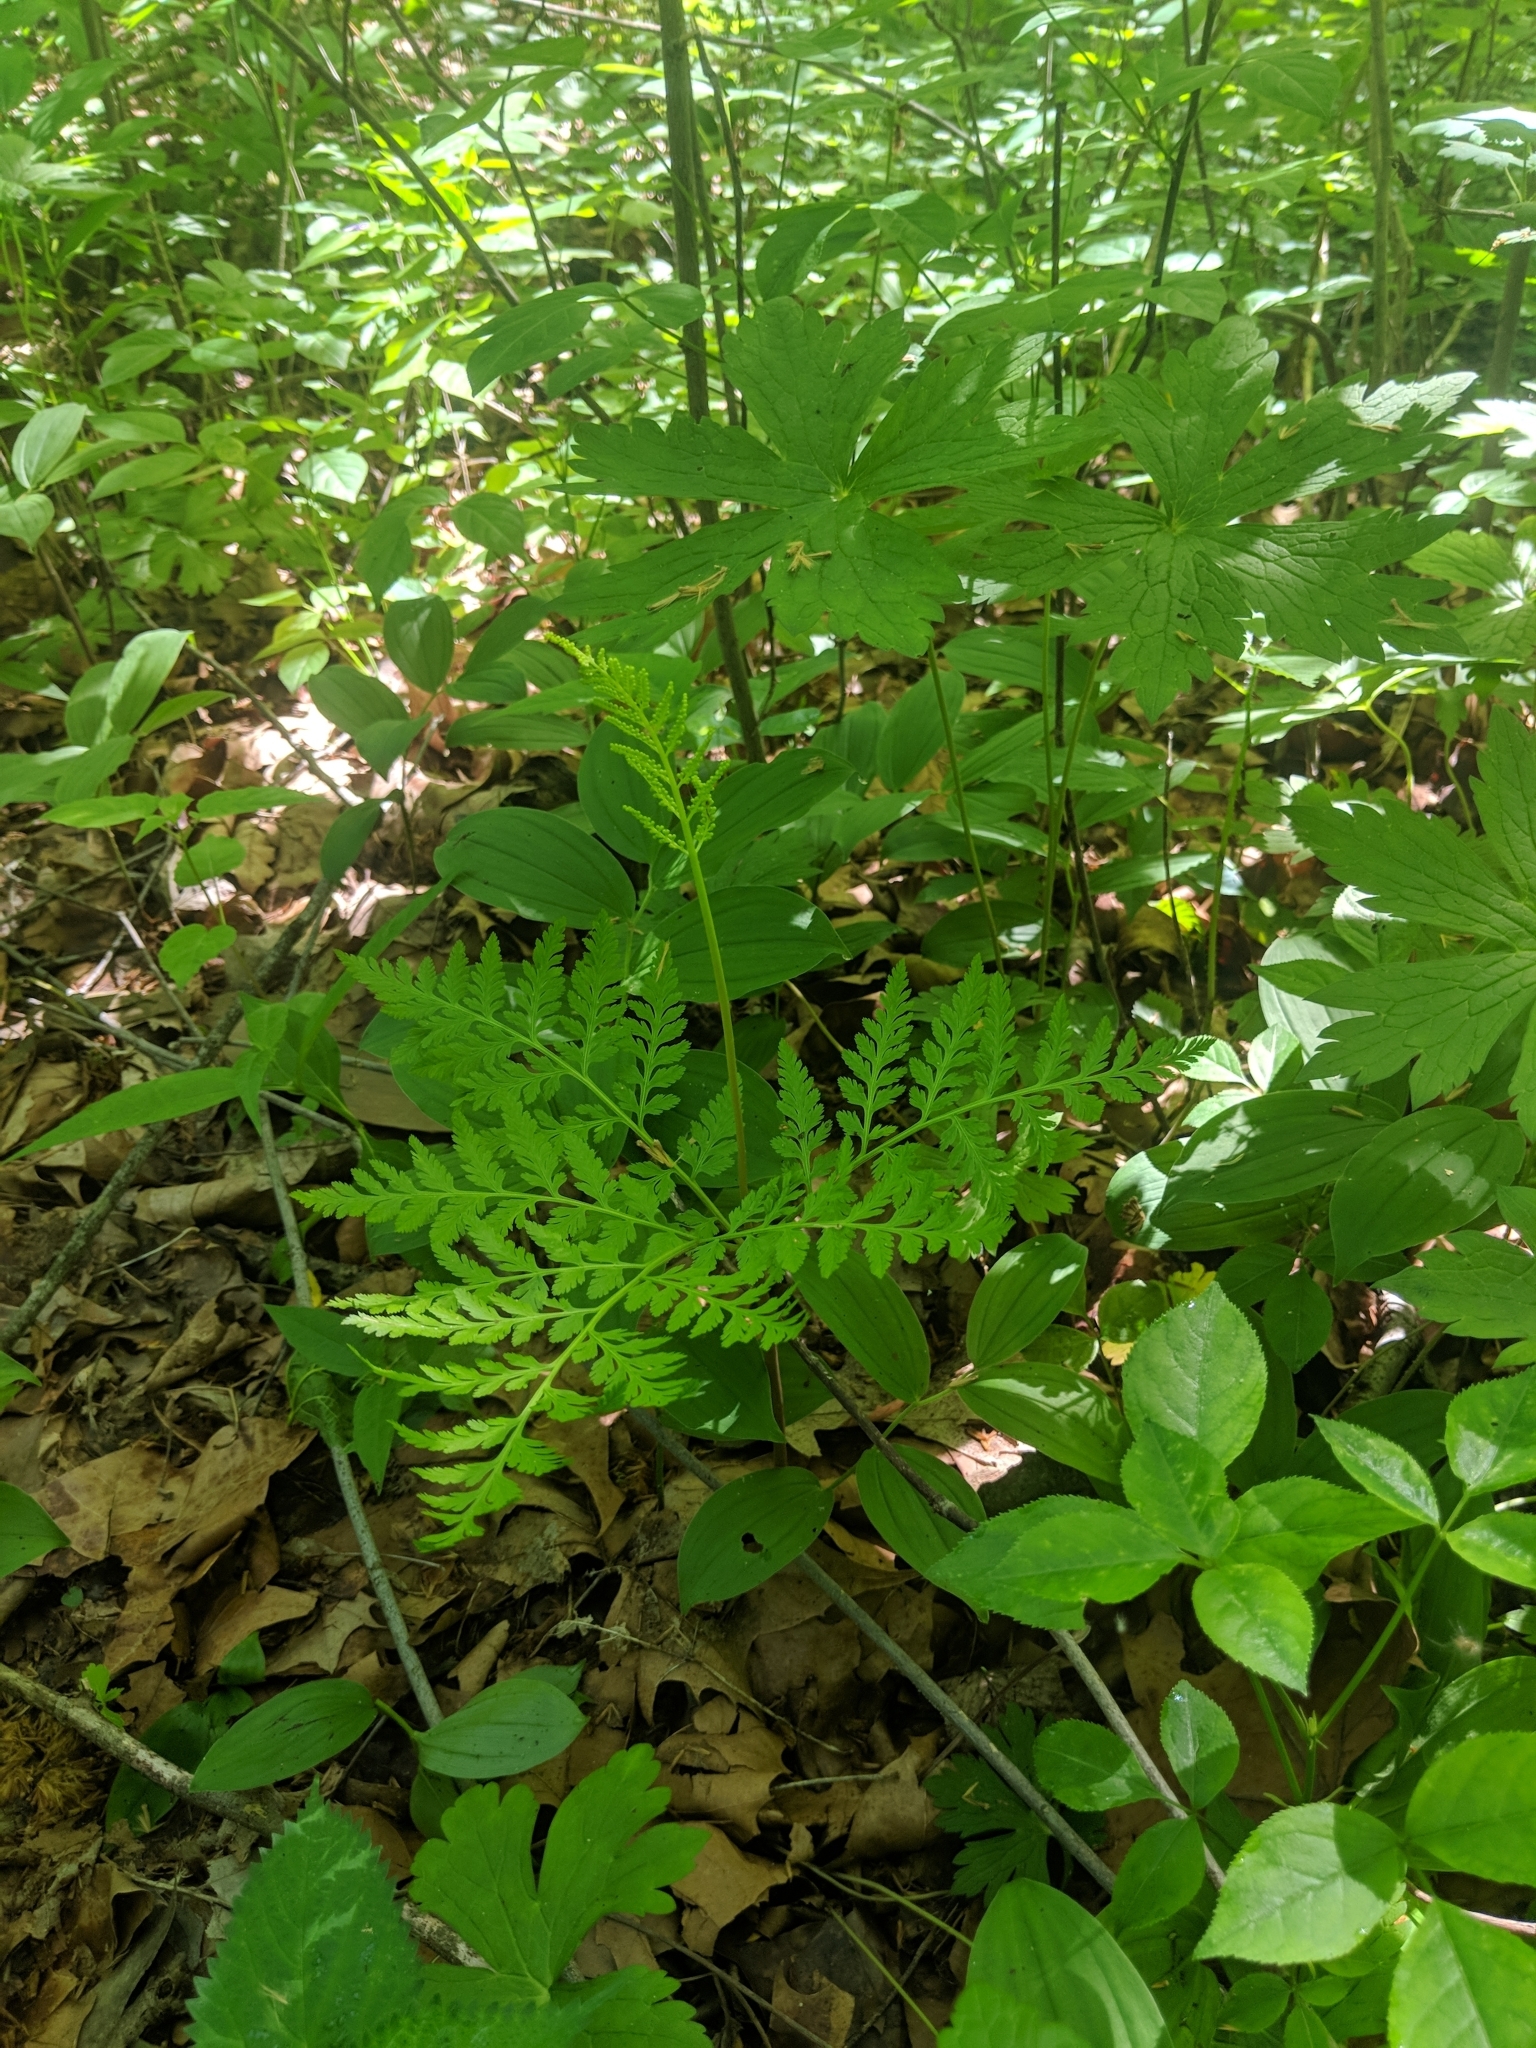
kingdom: Plantae
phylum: Tracheophyta
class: Polypodiopsida
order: Ophioglossales
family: Ophioglossaceae
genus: Botrypus
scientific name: Botrypus virginianus
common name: Common grapefern
